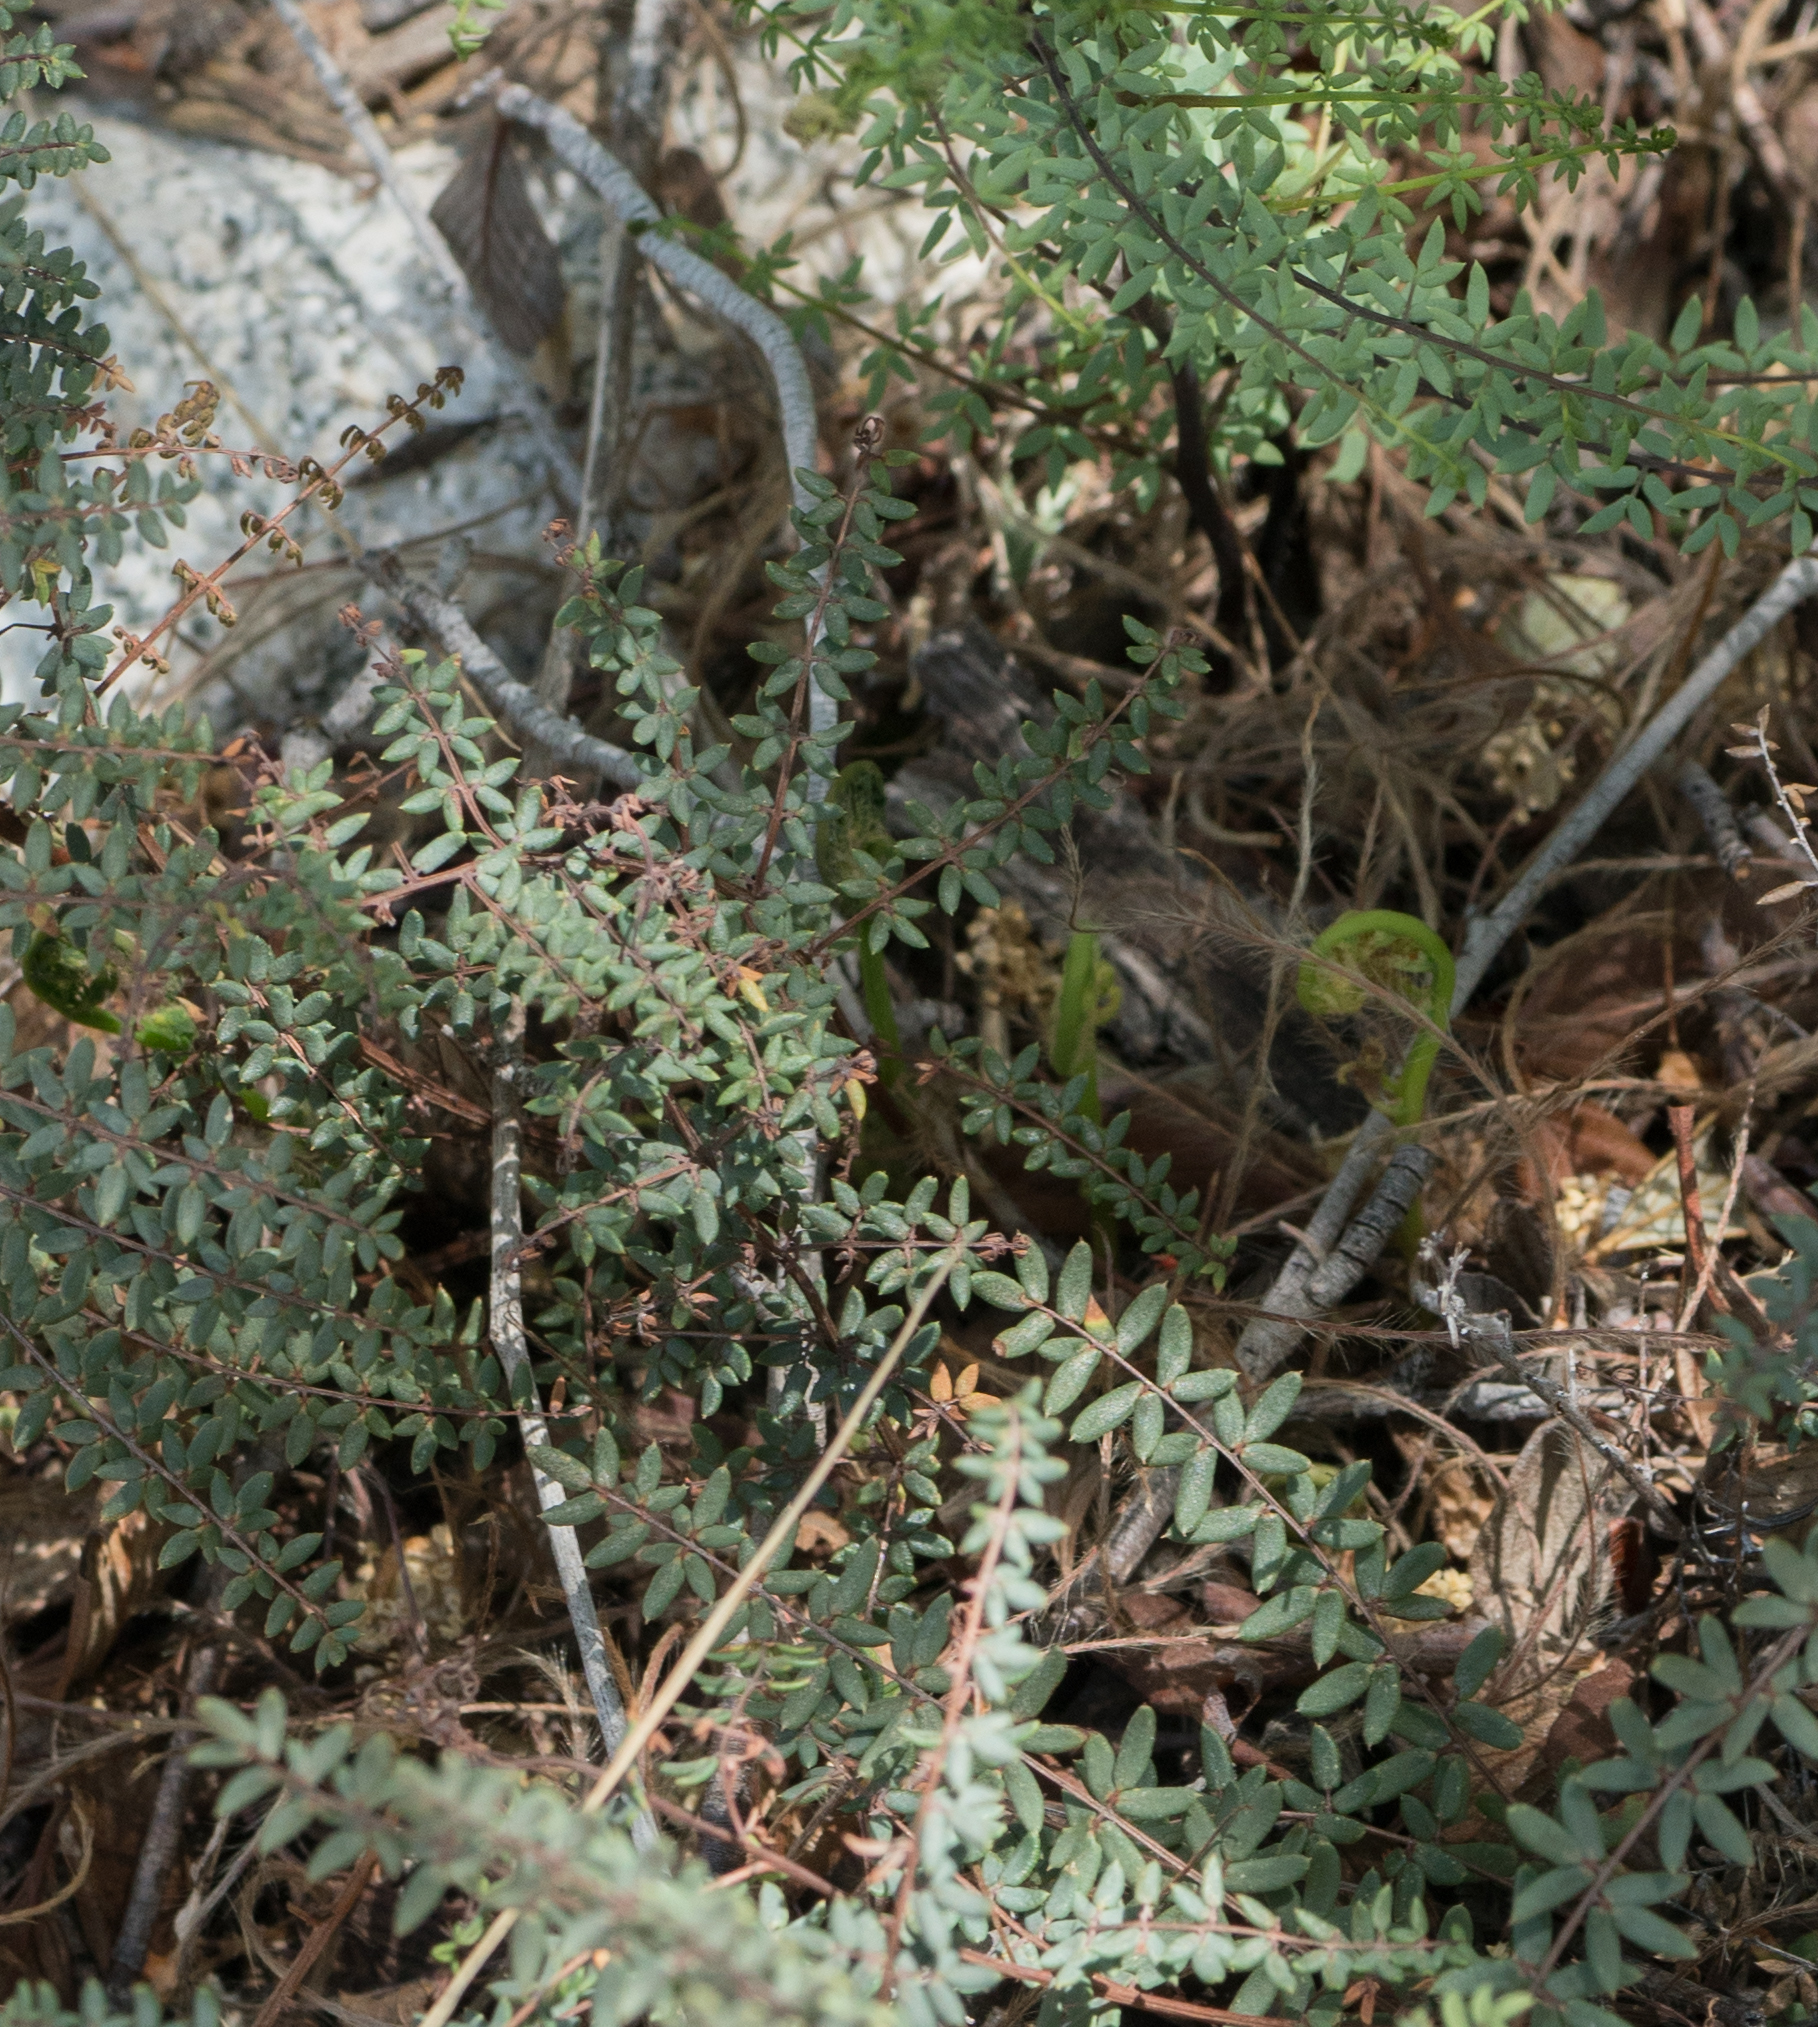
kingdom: Plantae
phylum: Tracheophyta
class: Polypodiopsida
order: Polypodiales
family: Pteridaceae
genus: Pellaea
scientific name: Pellaea mucronata
